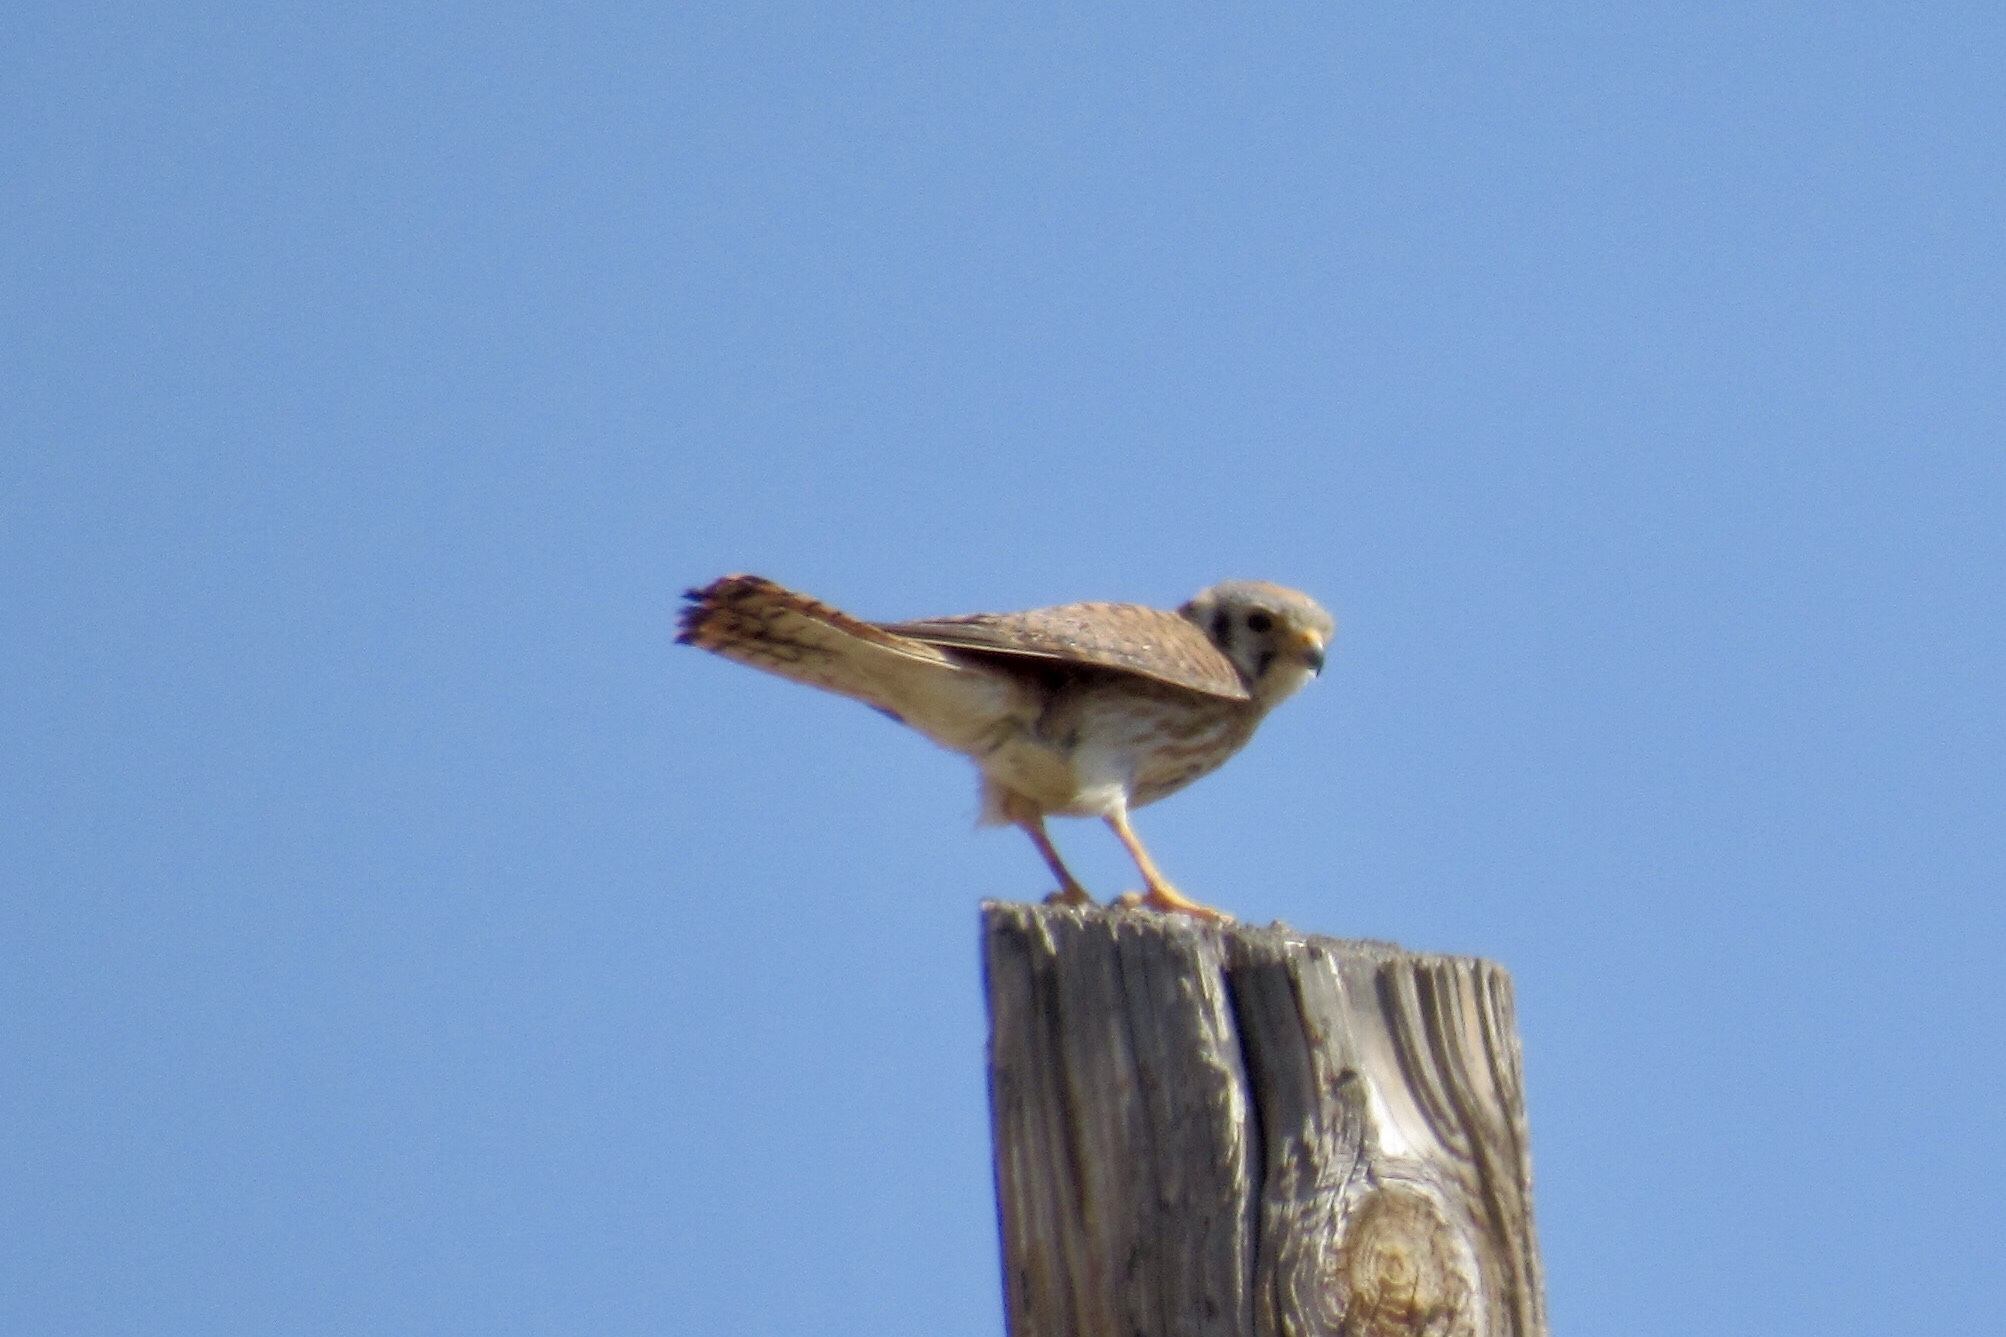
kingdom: Animalia
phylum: Chordata
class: Aves
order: Falconiformes
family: Falconidae
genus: Falco
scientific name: Falco sparverius
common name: American kestrel
